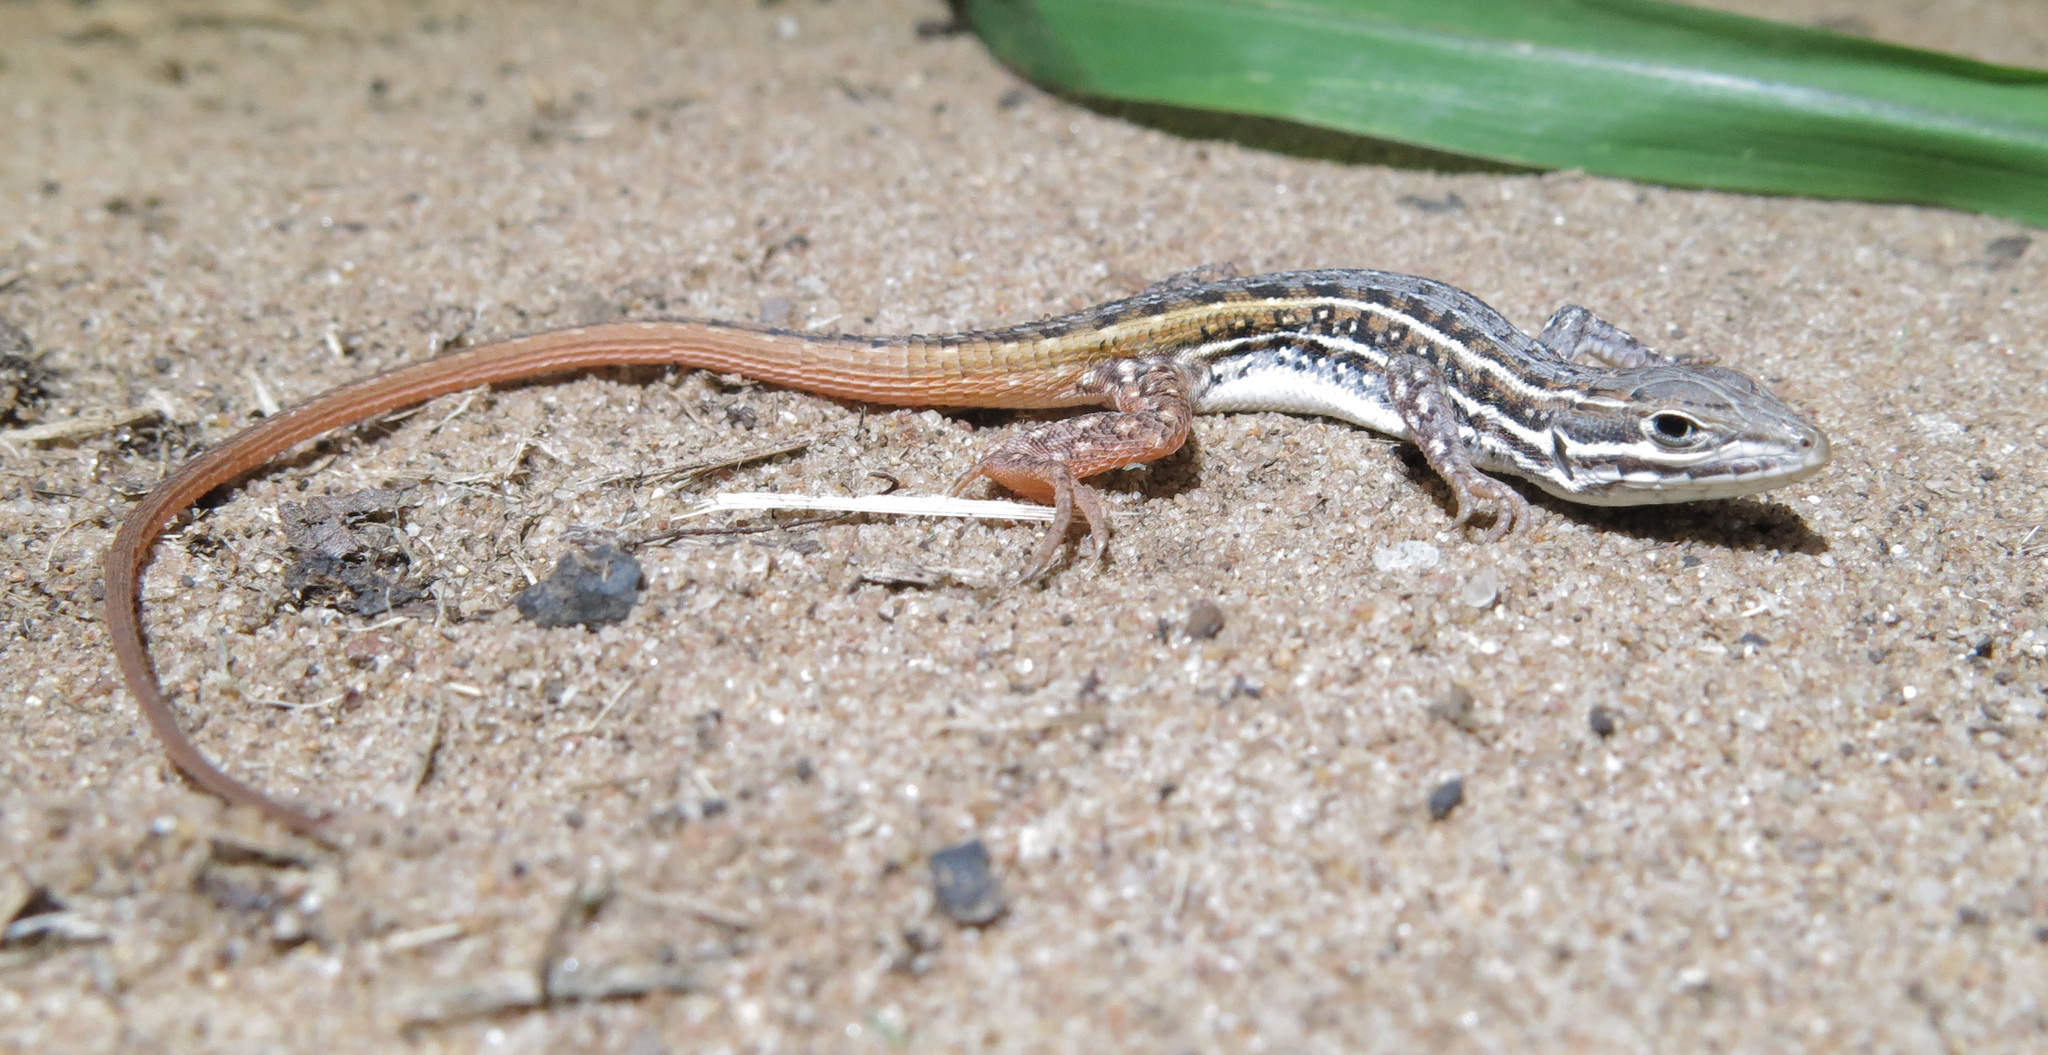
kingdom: Animalia
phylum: Chordata
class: Squamata
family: Lacertidae
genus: Meroles
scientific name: Meroles squamulosus
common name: Common desert lizard
